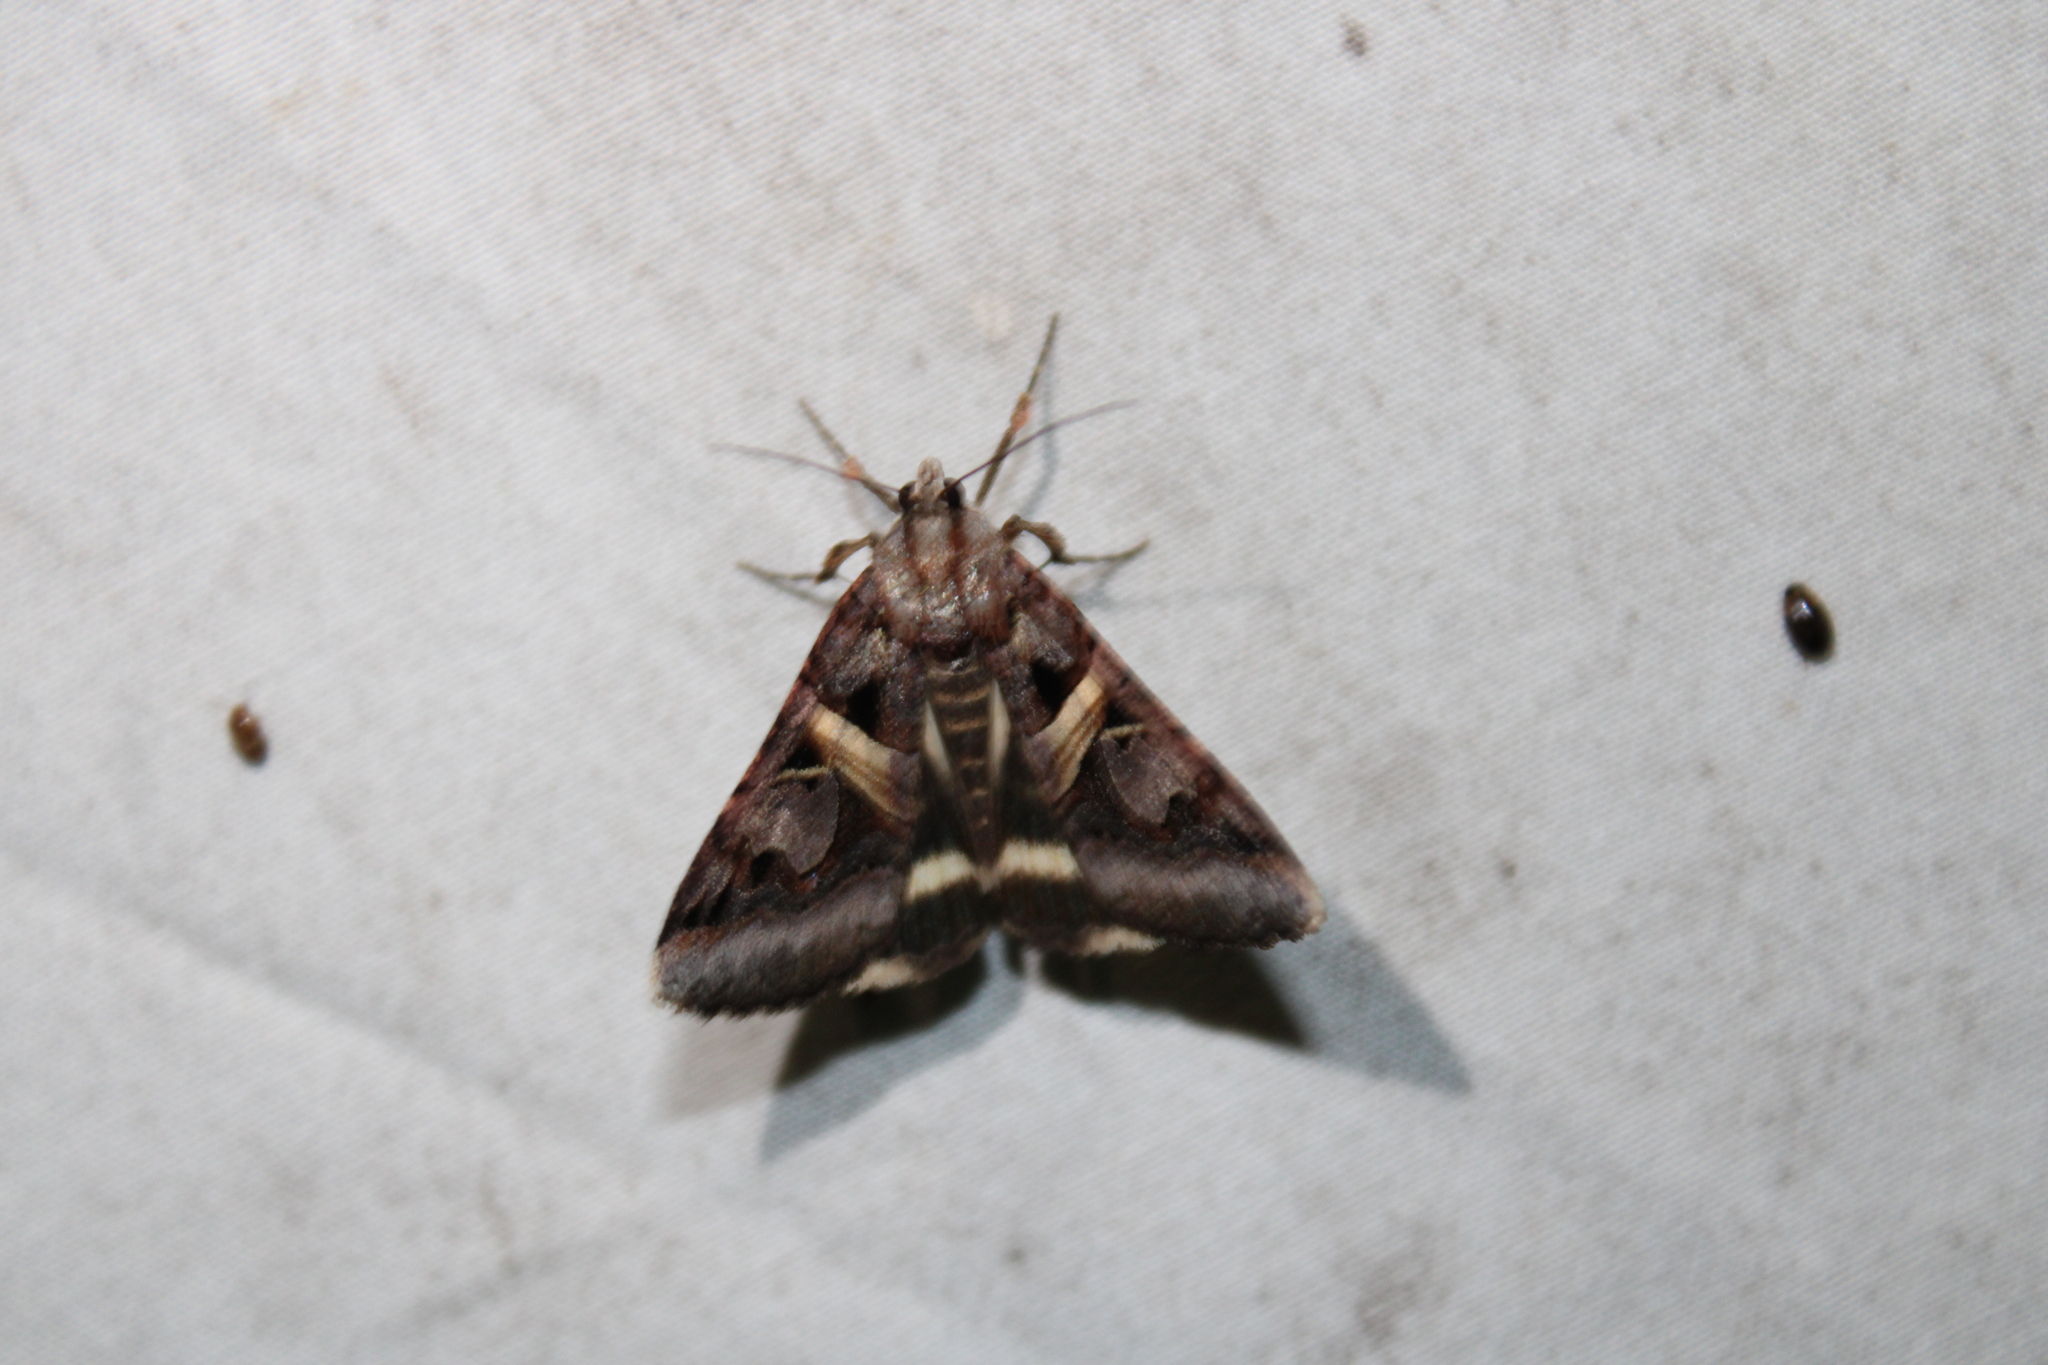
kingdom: Animalia
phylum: Arthropoda
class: Insecta
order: Lepidoptera
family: Erebidae
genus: Drasteria
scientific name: Drasteria grandirena
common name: Figure-seven moth
